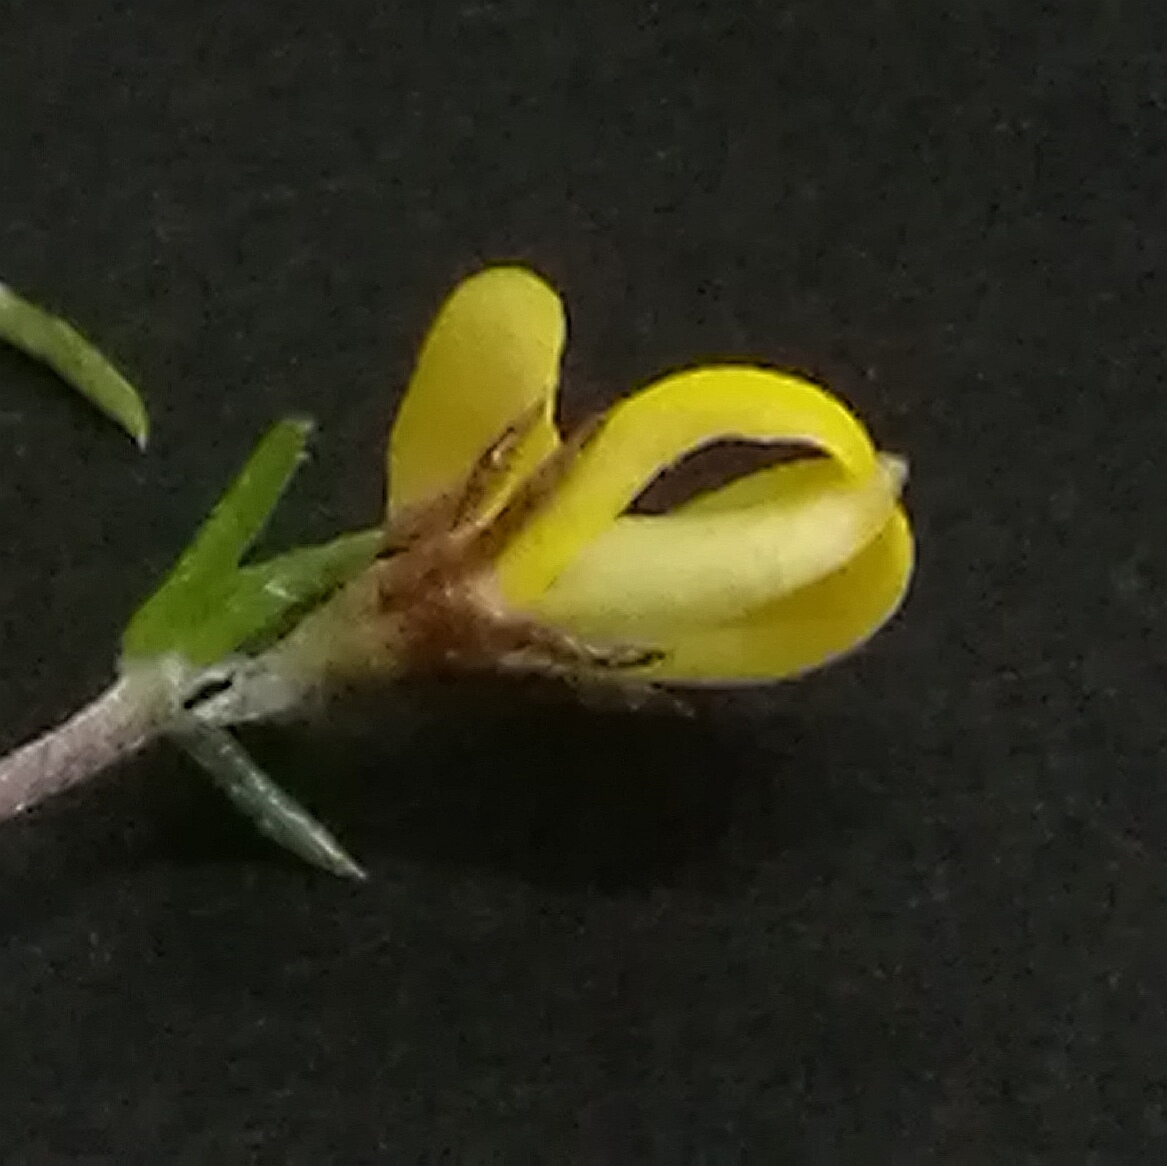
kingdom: Plantae
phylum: Tracheophyta
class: Magnoliopsida
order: Fabales
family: Fabaceae
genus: Aspalathus
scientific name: Aspalathus rubens
